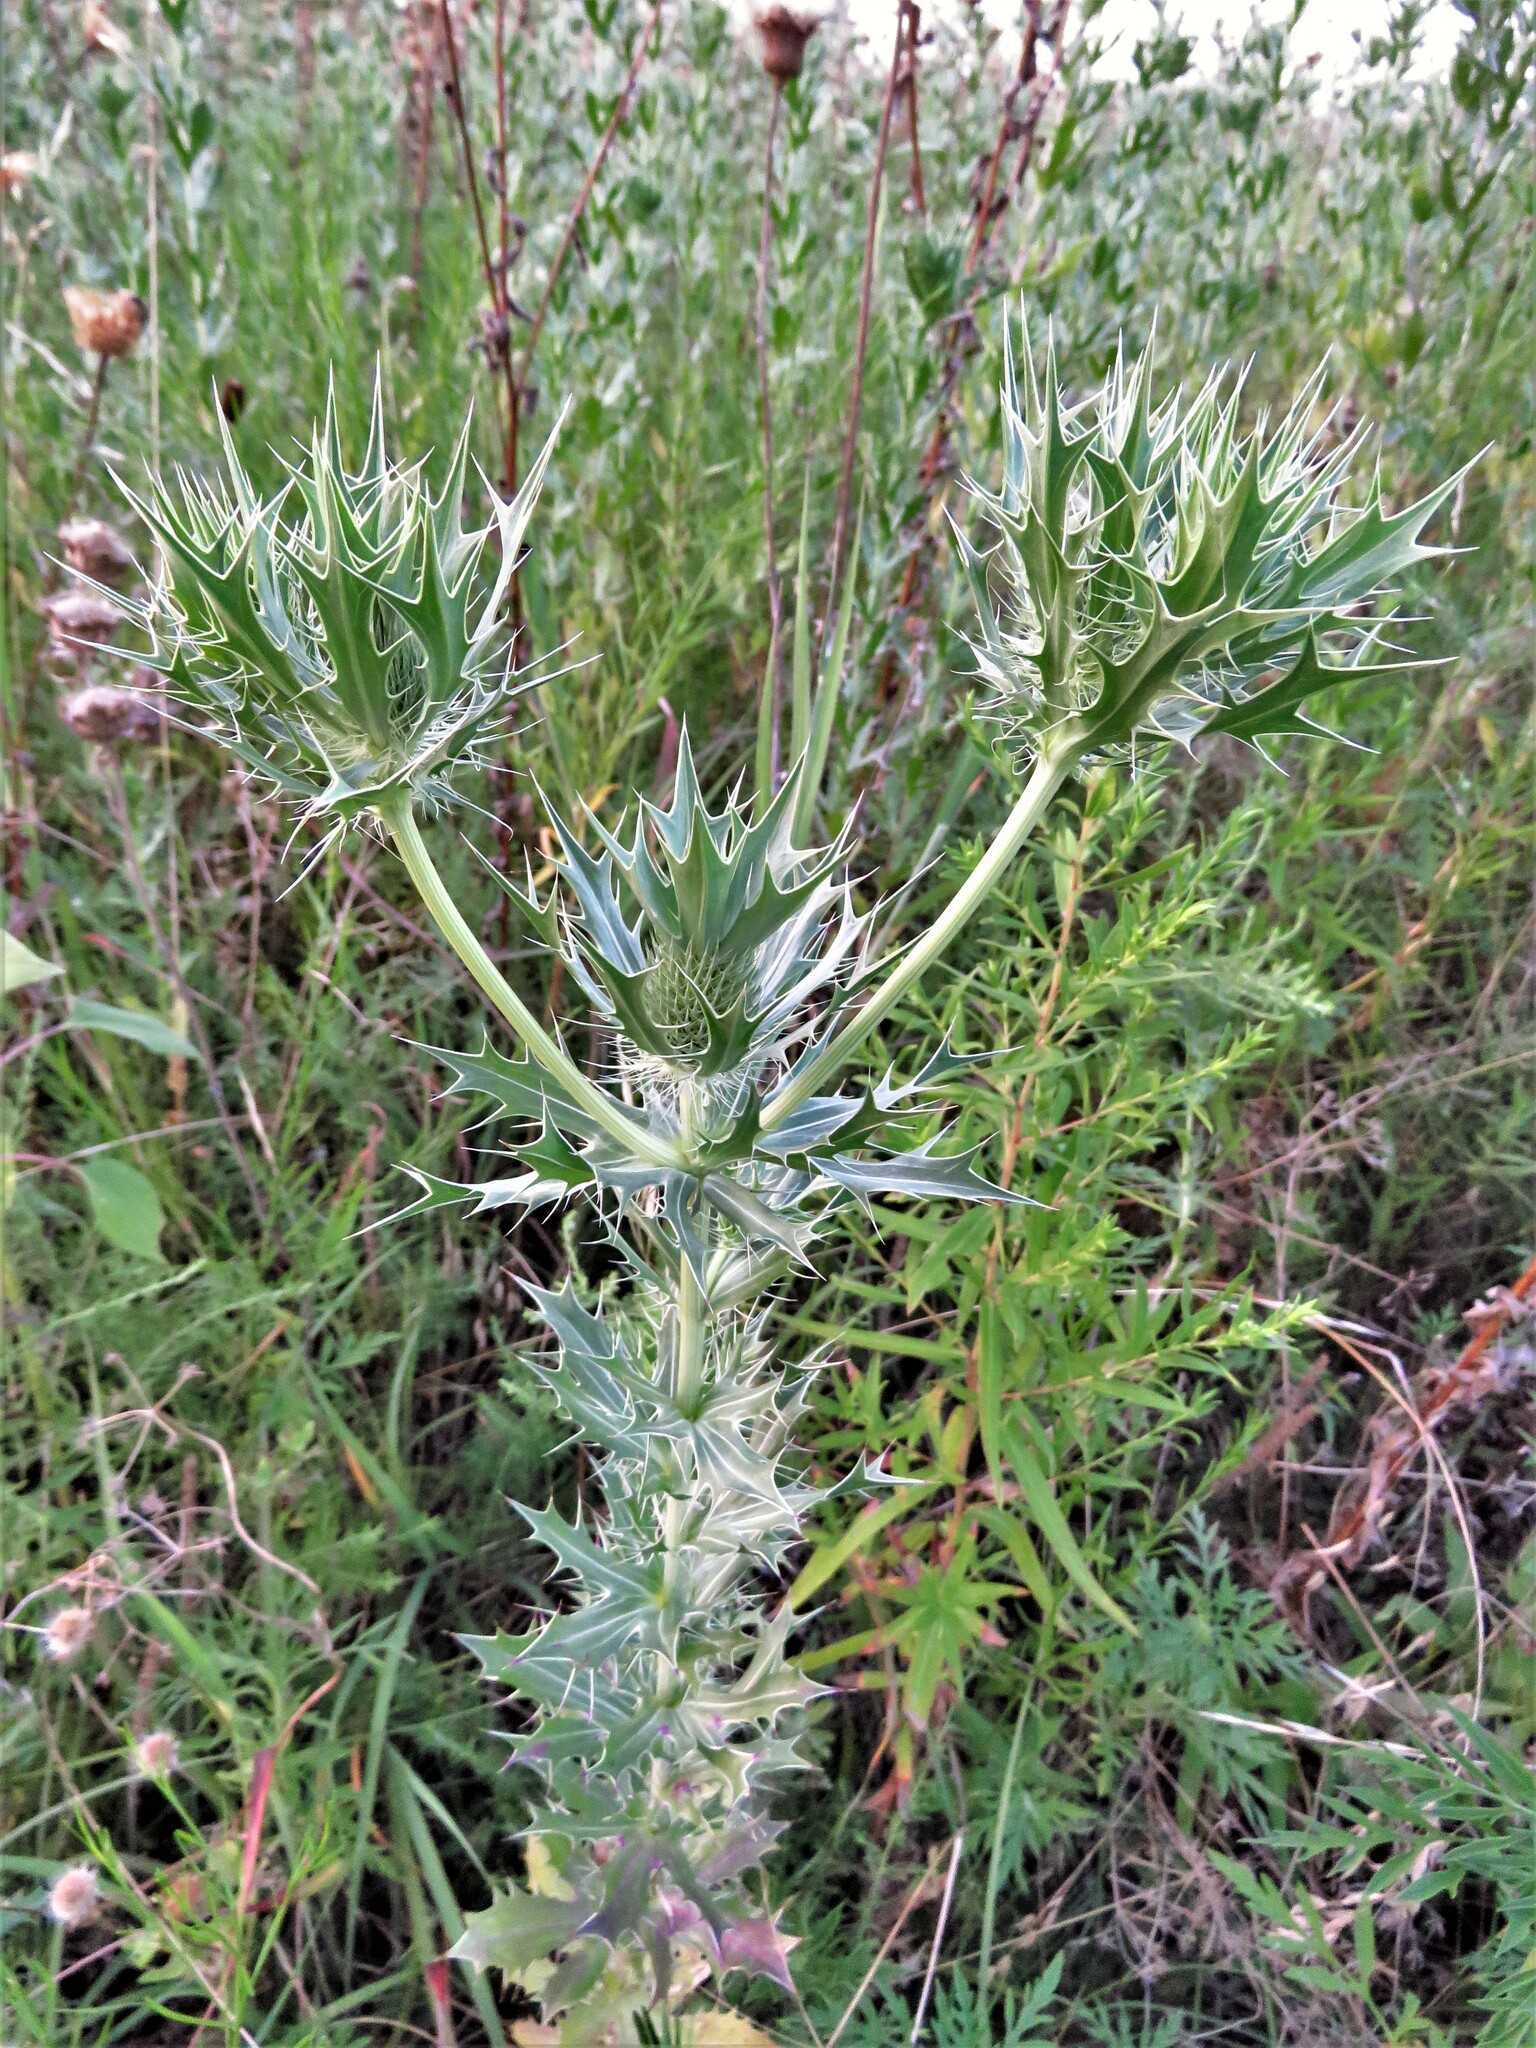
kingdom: Plantae
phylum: Tracheophyta
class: Magnoliopsida
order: Apiales
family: Apiaceae
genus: Eryngium
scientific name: Eryngium leavenworthii
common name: Leavenworth's eryngo
